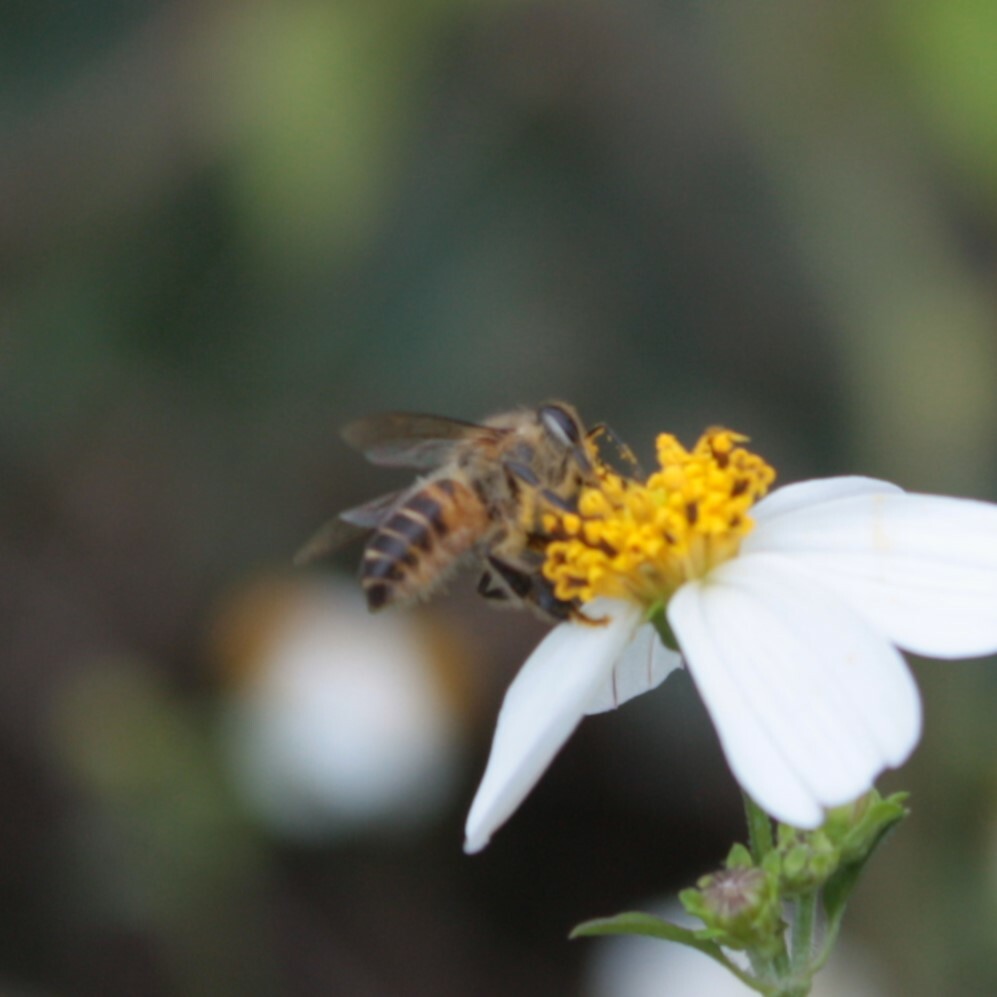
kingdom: Animalia
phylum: Arthropoda
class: Insecta
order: Hymenoptera
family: Apidae
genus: Apis
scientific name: Apis cerana
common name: Honey bee
